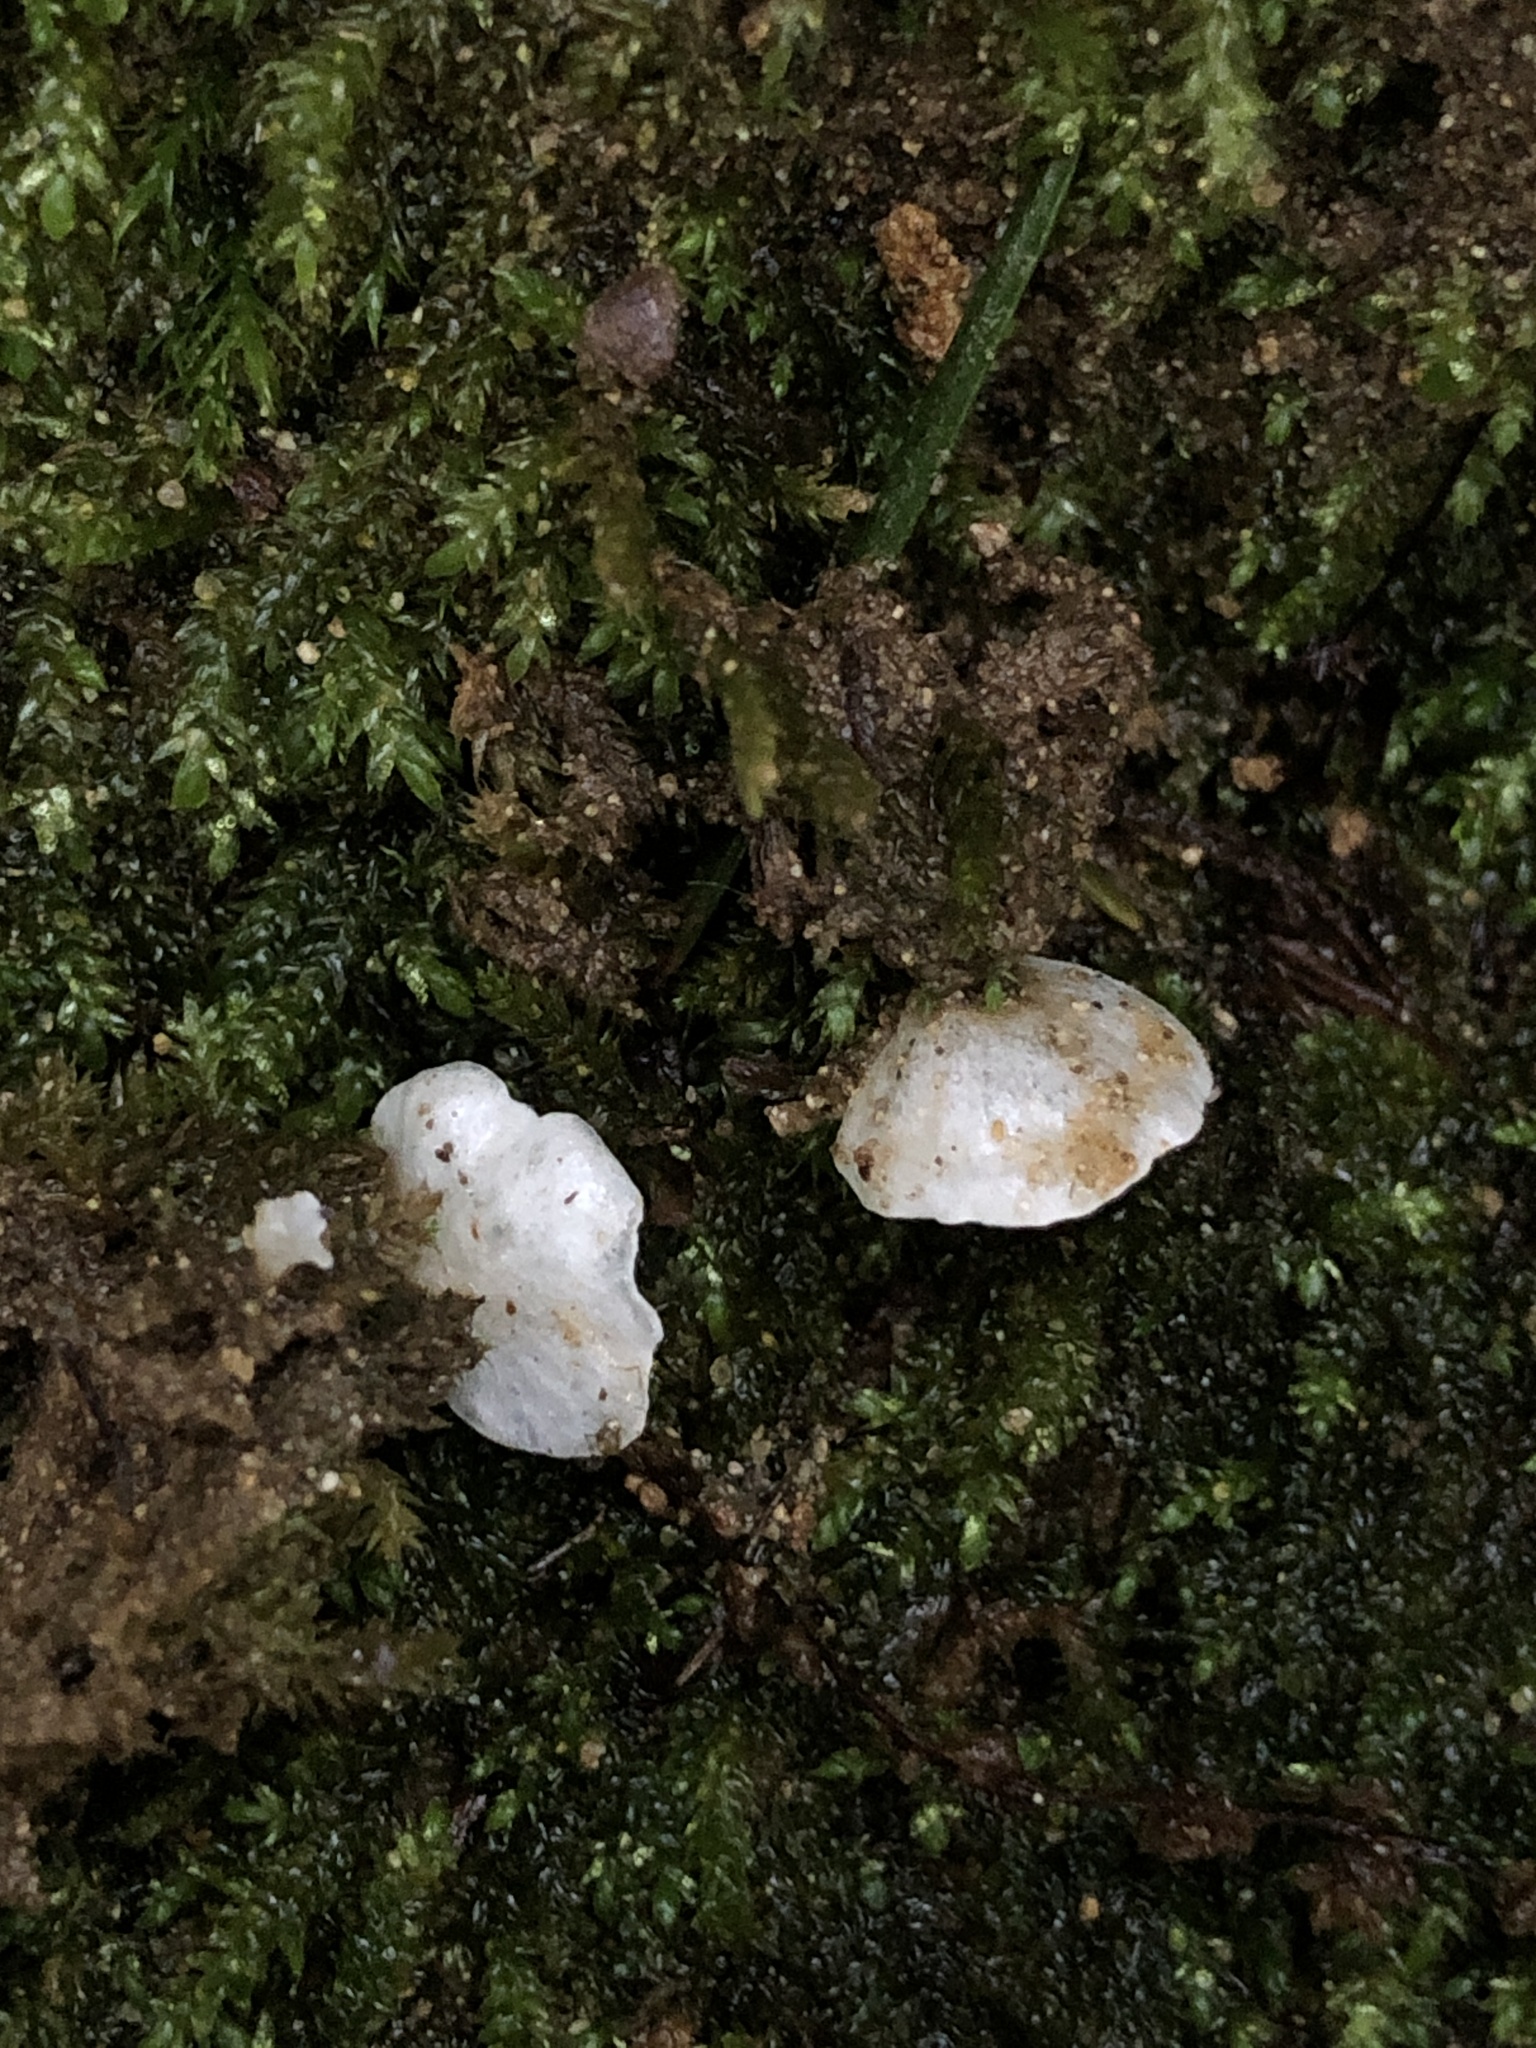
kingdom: Fungi
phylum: Basidiomycota
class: Agaricomycetes
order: Agaricales
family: Tricholomataceae
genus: Rimbachia
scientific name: Rimbachia bryophila
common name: Veined mossear
